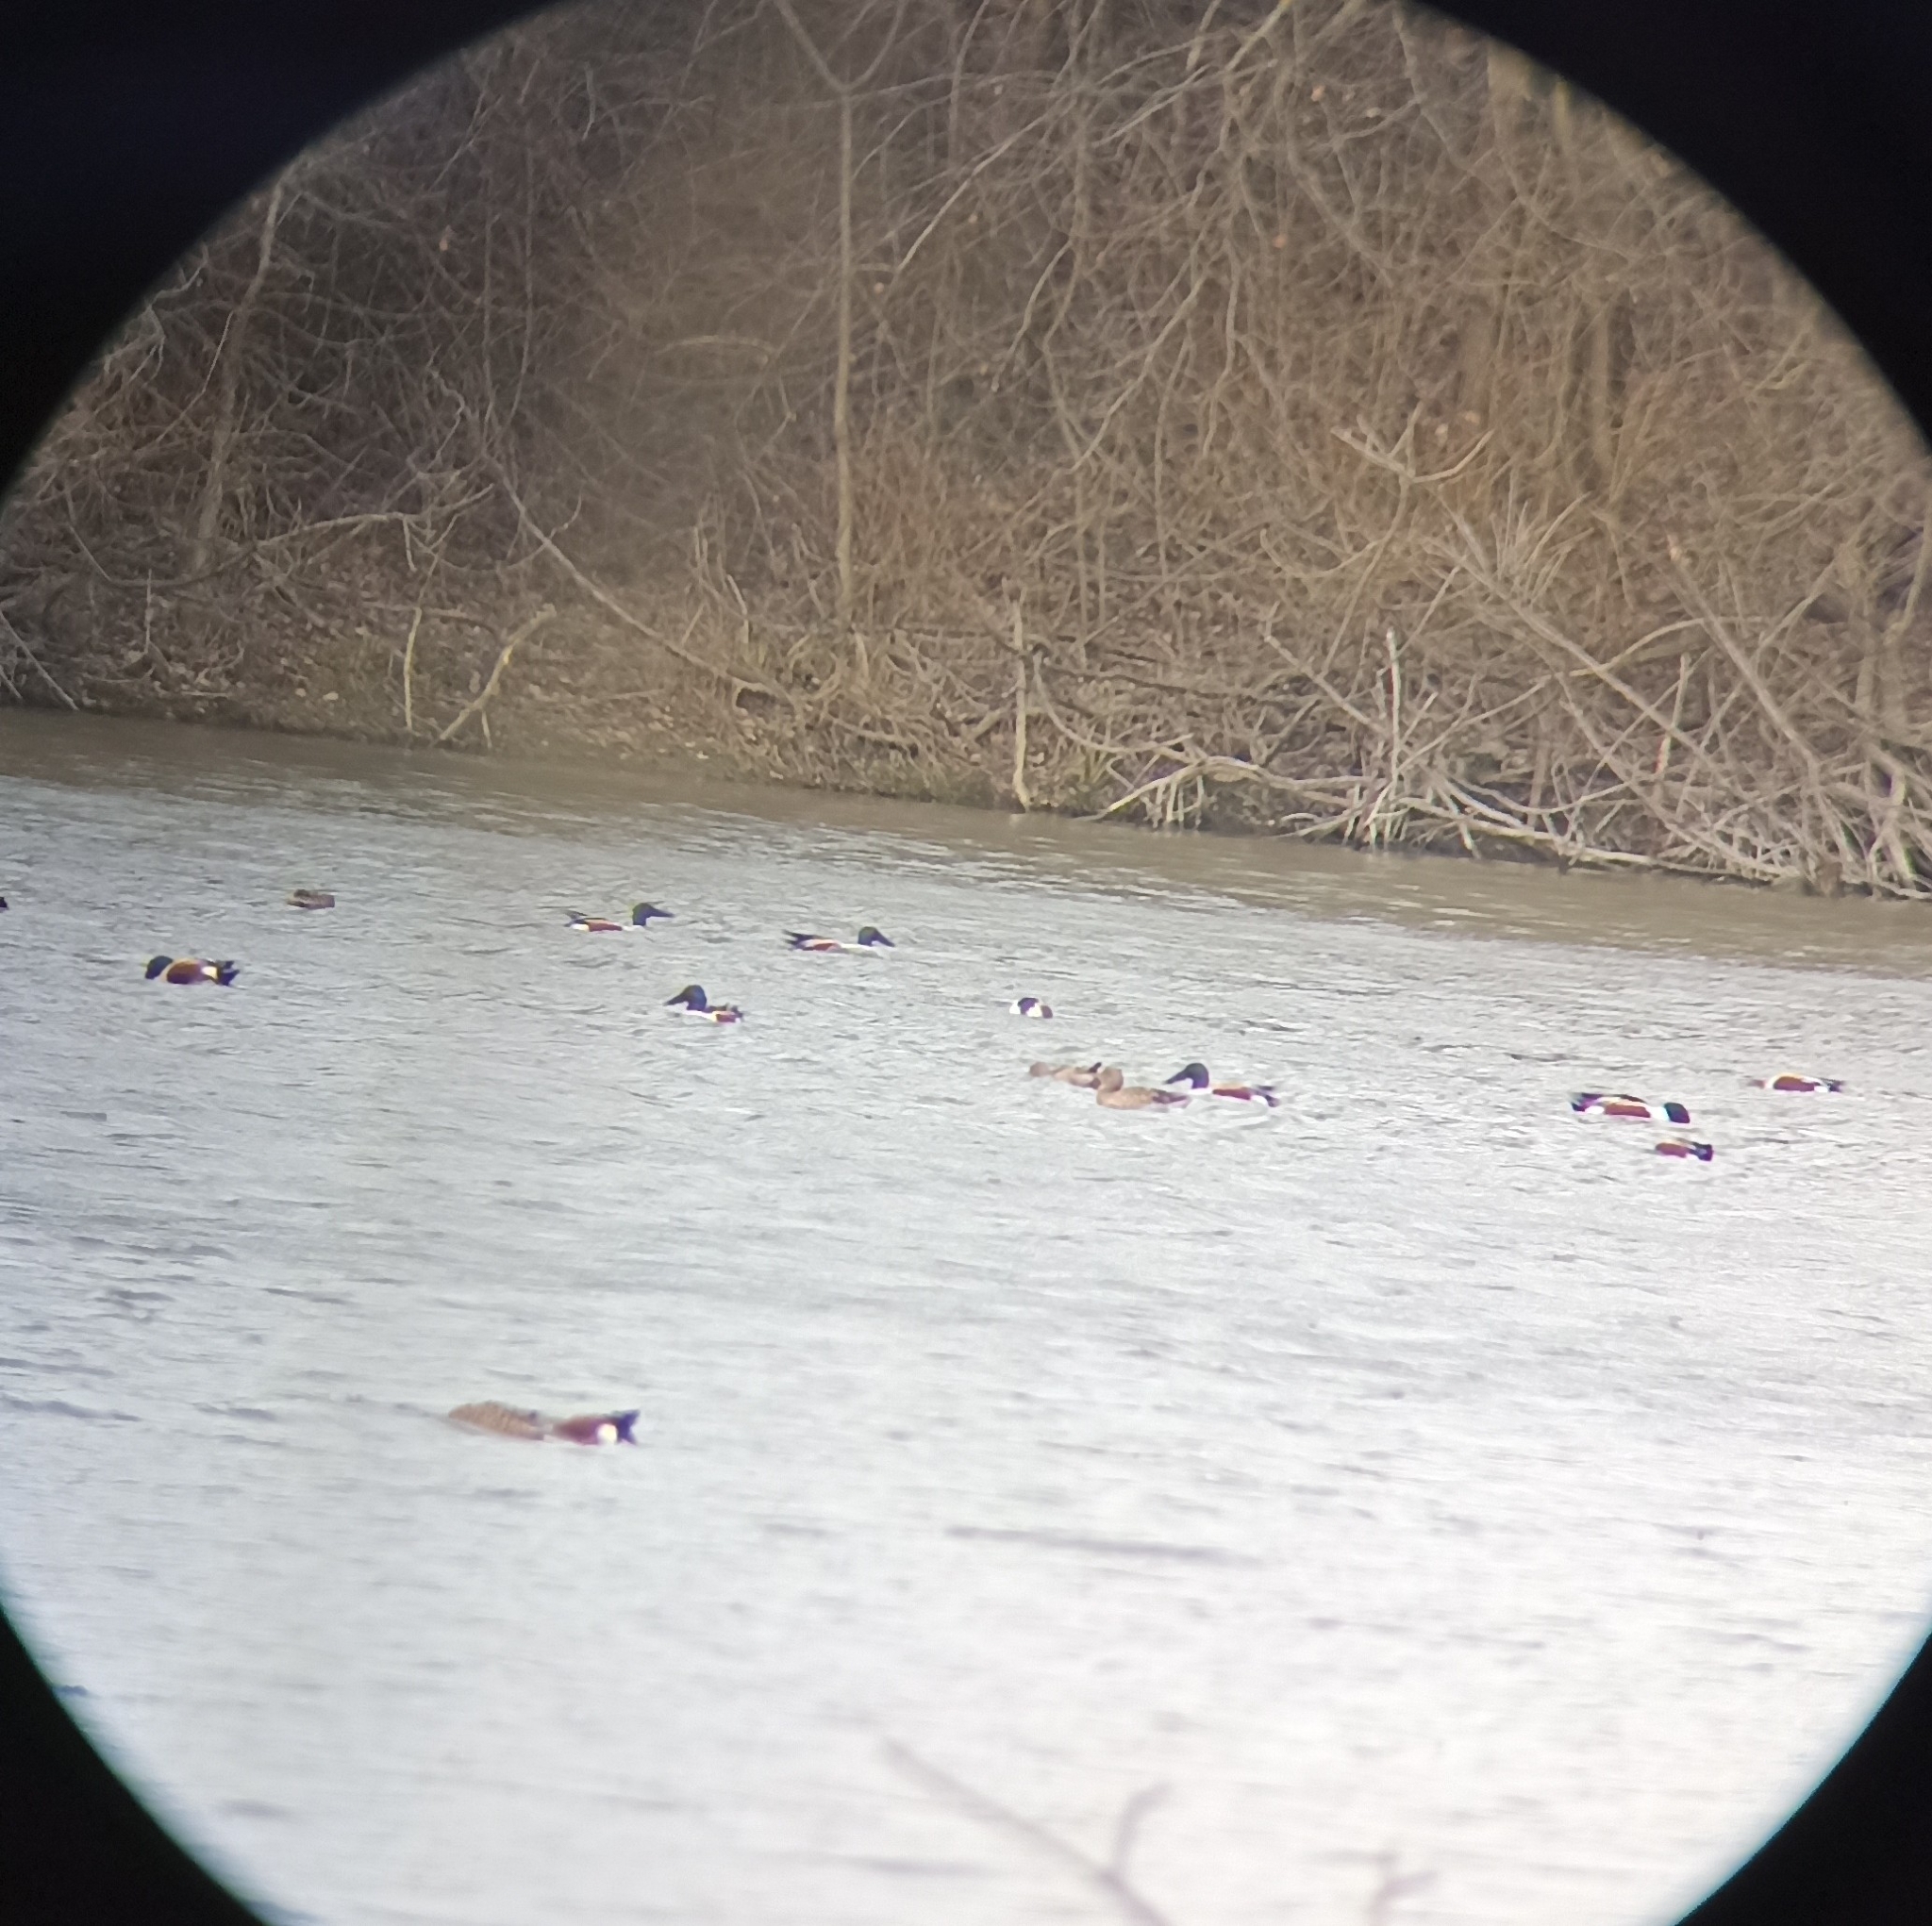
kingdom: Animalia
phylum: Chordata
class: Aves
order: Anseriformes
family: Anatidae
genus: Spatula
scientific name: Spatula clypeata
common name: Northern shoveler
